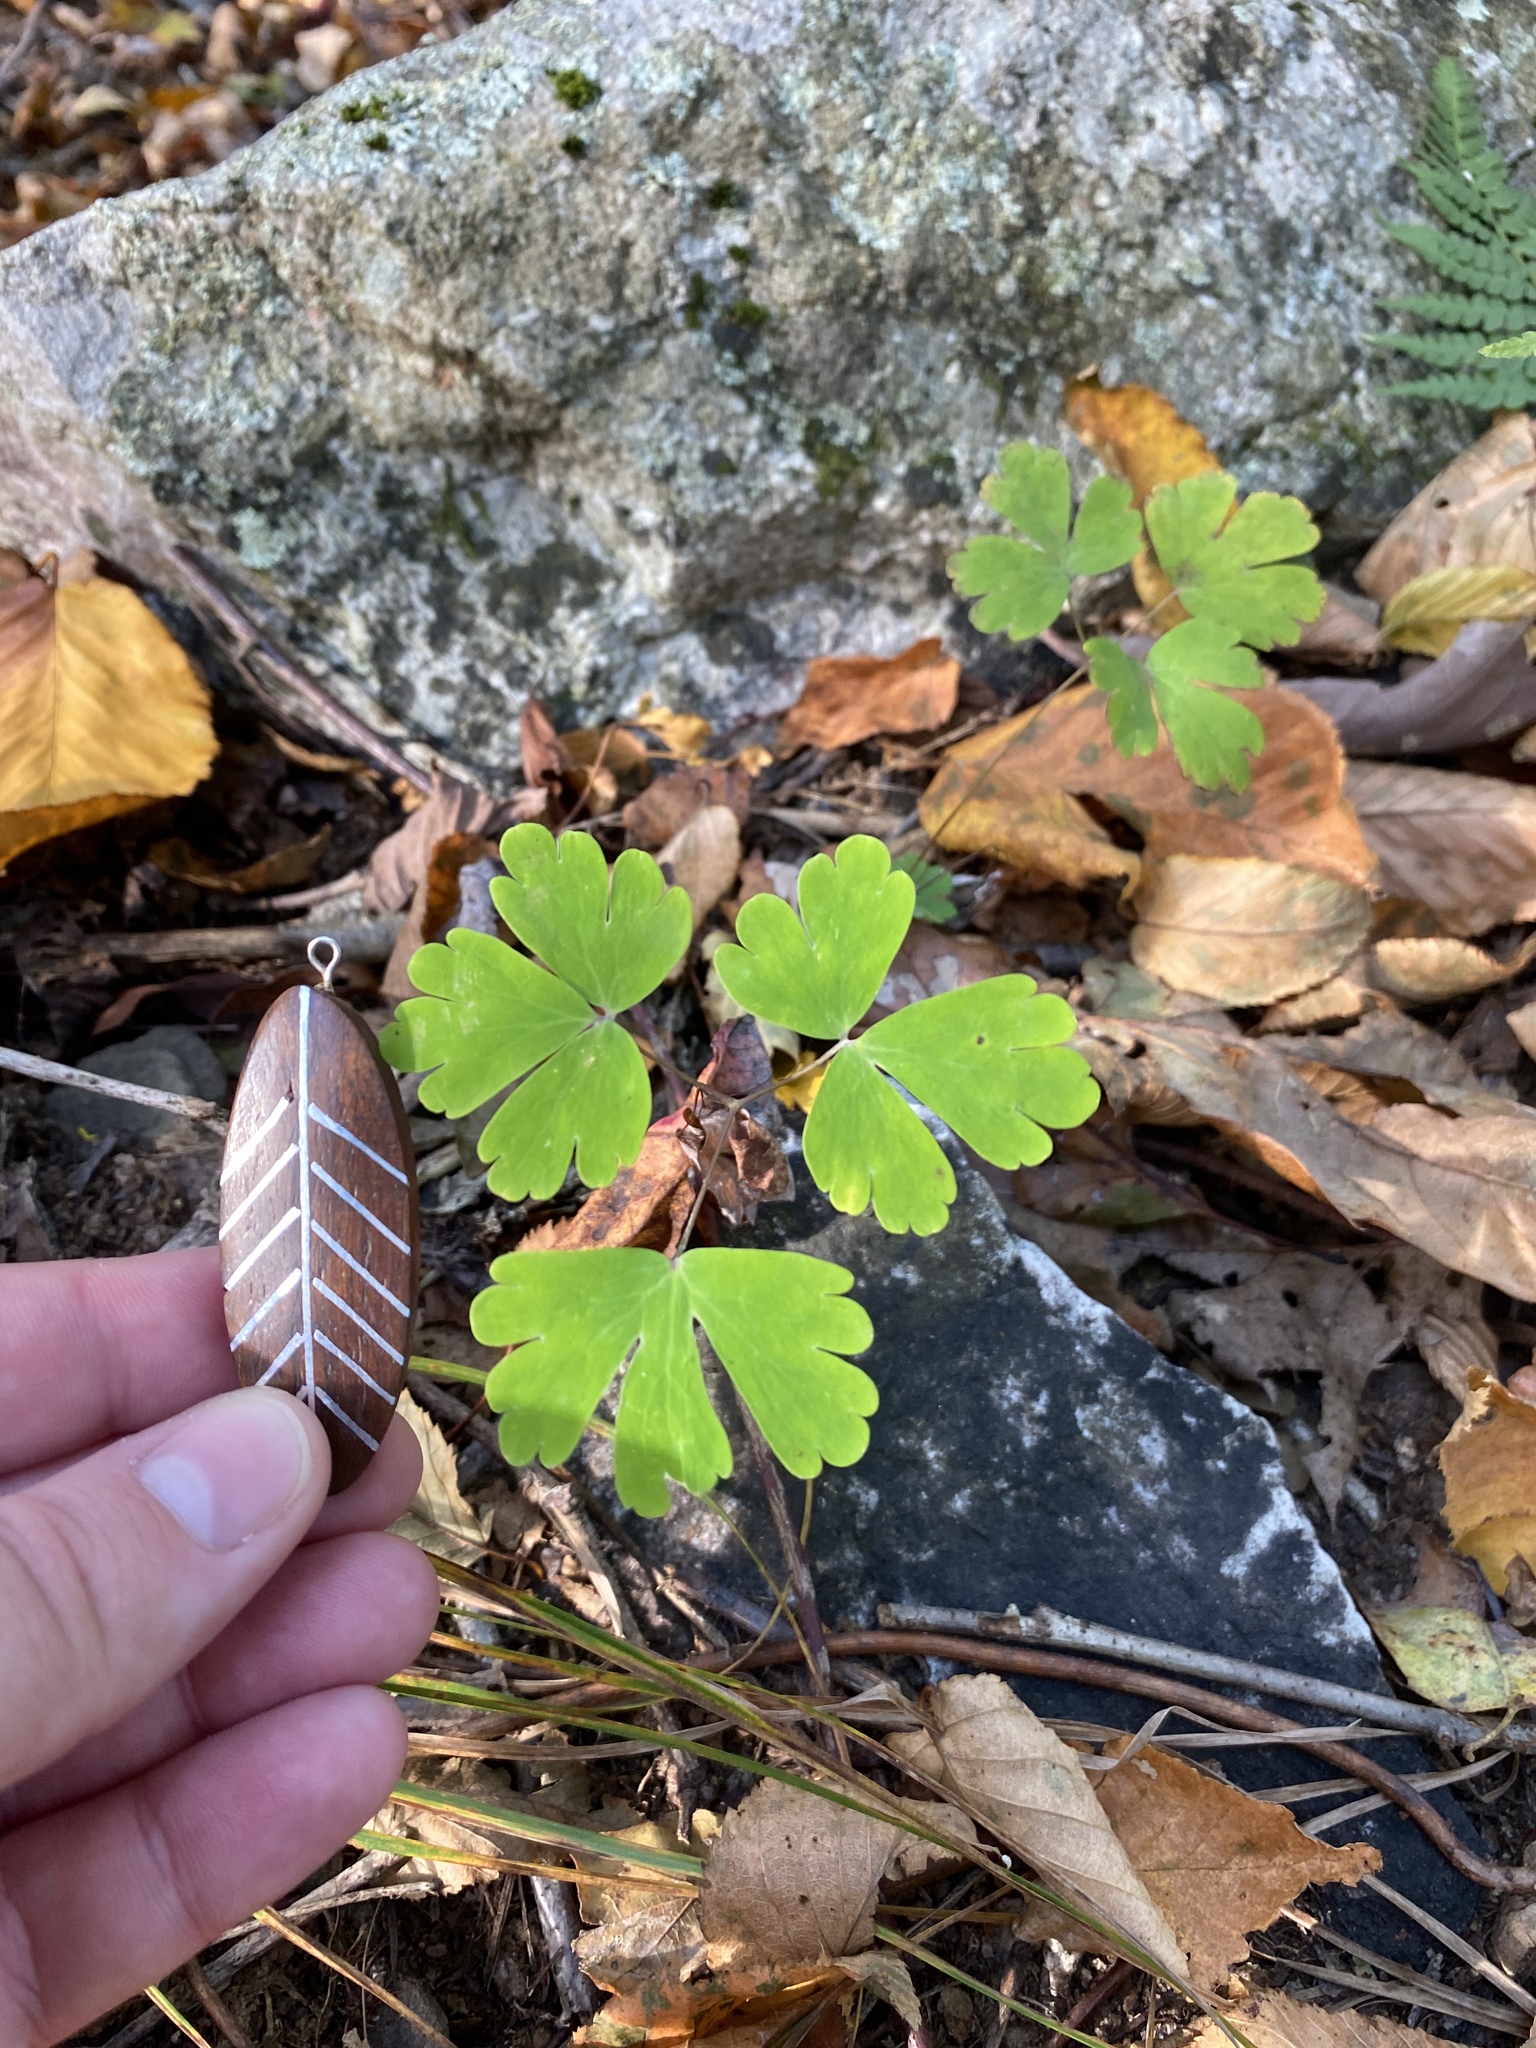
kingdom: Plantae
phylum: Tracheophyta
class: Magnoliopsida
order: Ranunculales
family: Ranunculaceae
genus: Aquilegia
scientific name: Aquilegia canadensis
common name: American columbine
